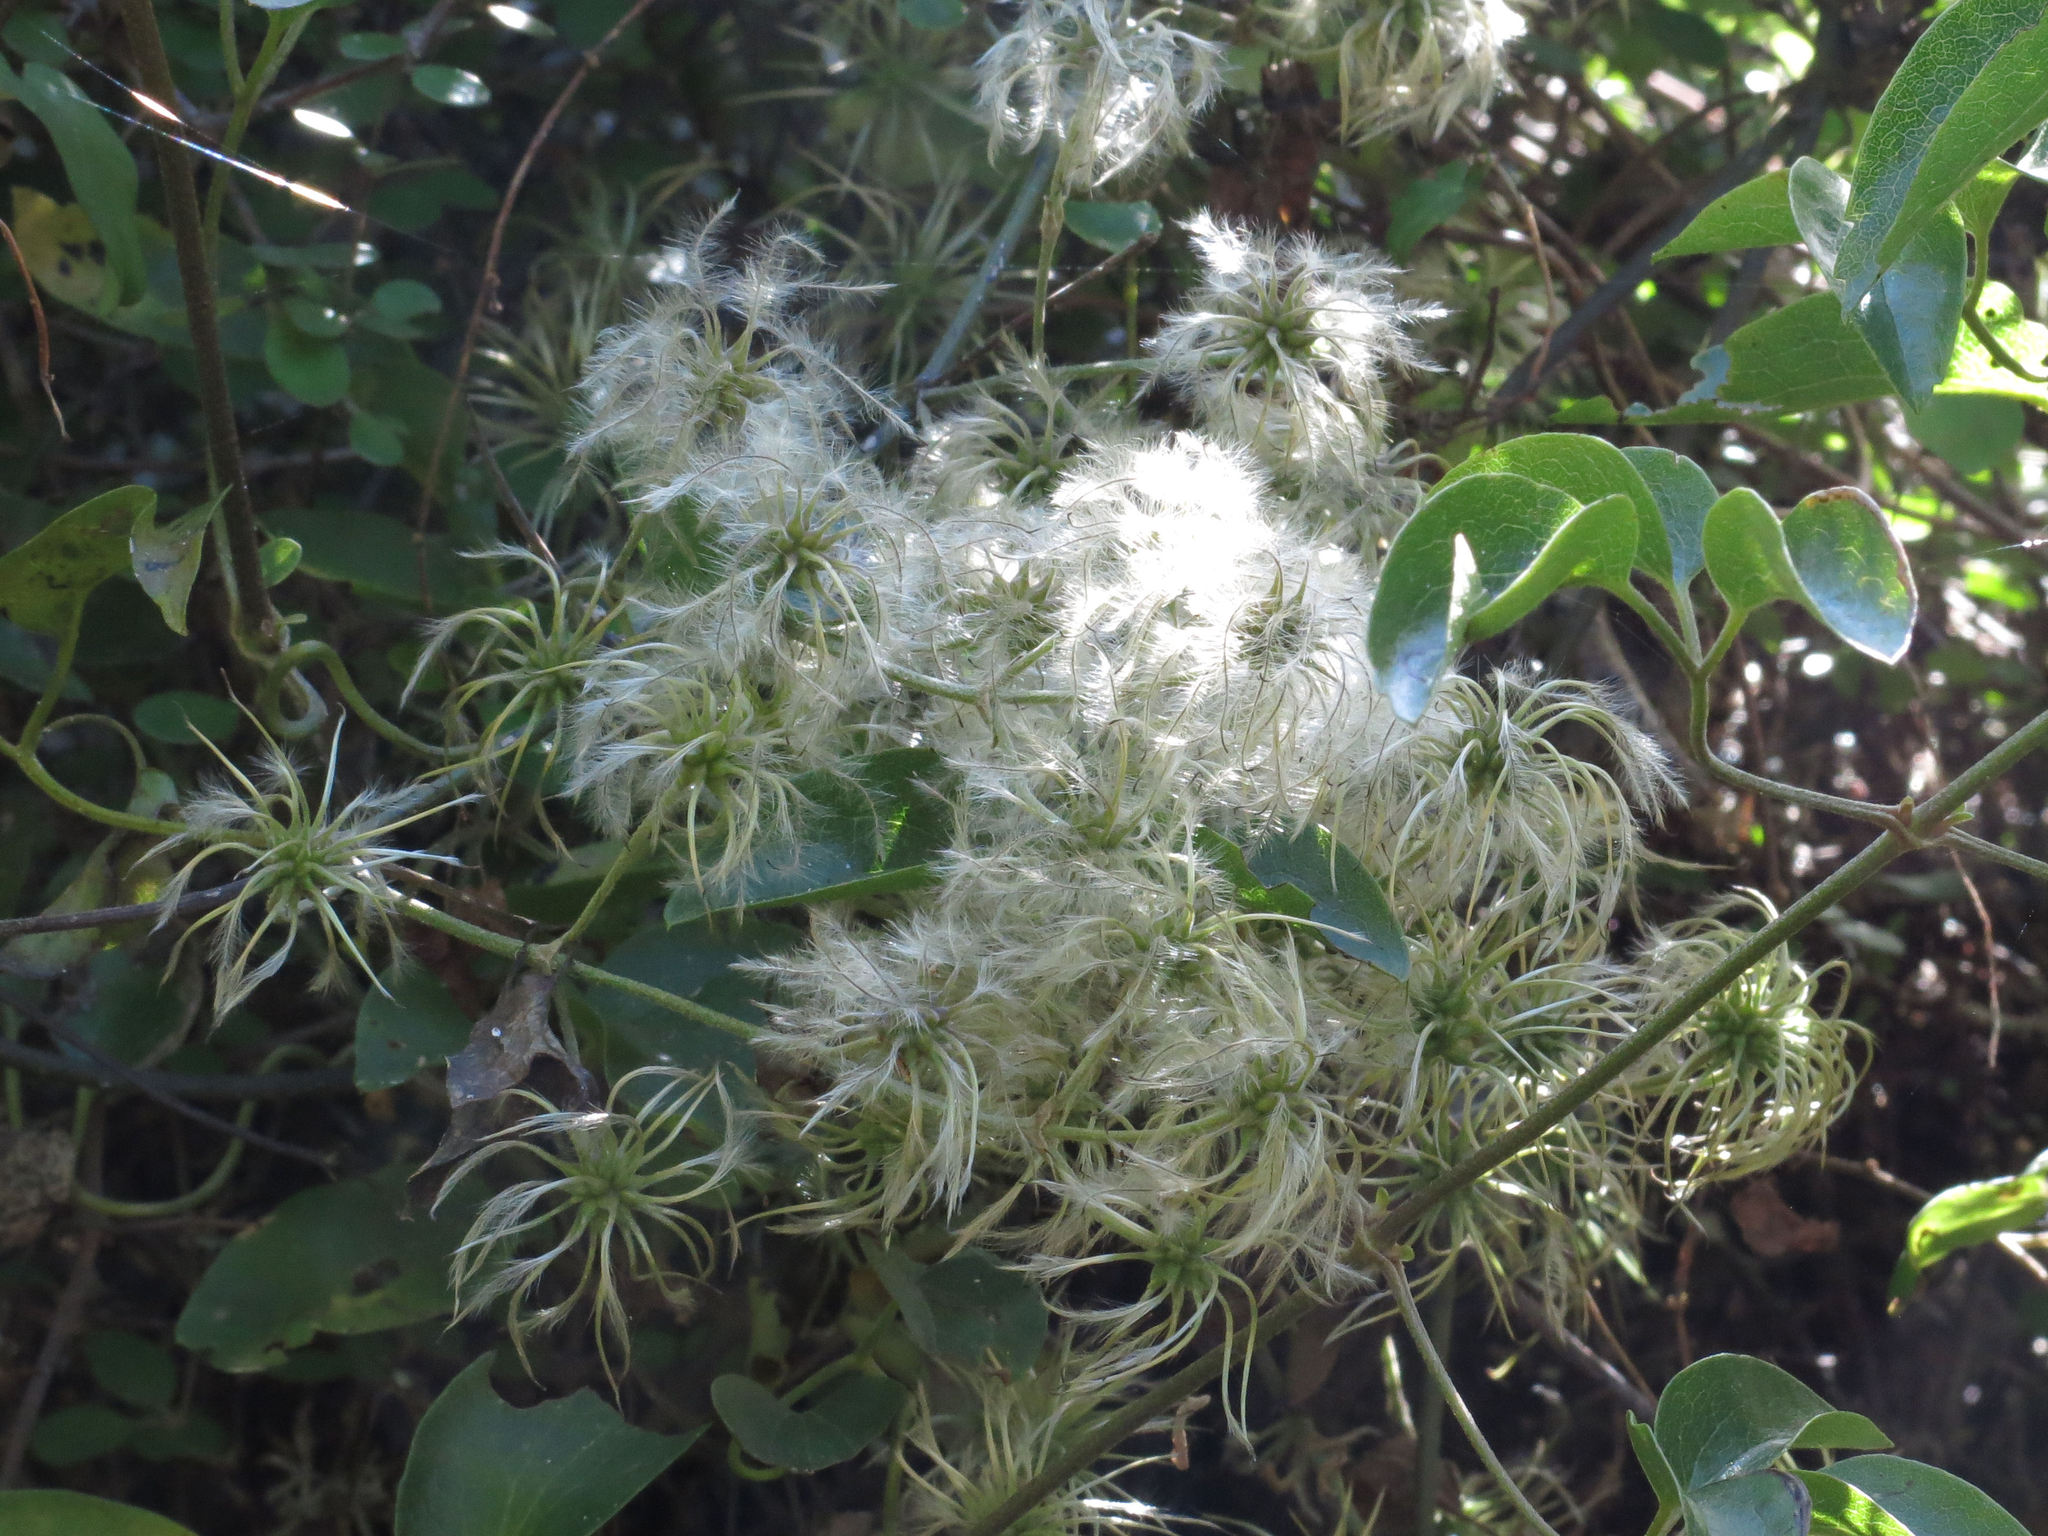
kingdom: Plantae
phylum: Tracheophyta
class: Magnoliopsida
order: Ranunculales
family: Ranunculaceae
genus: Clematis
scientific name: Clematis foetida
